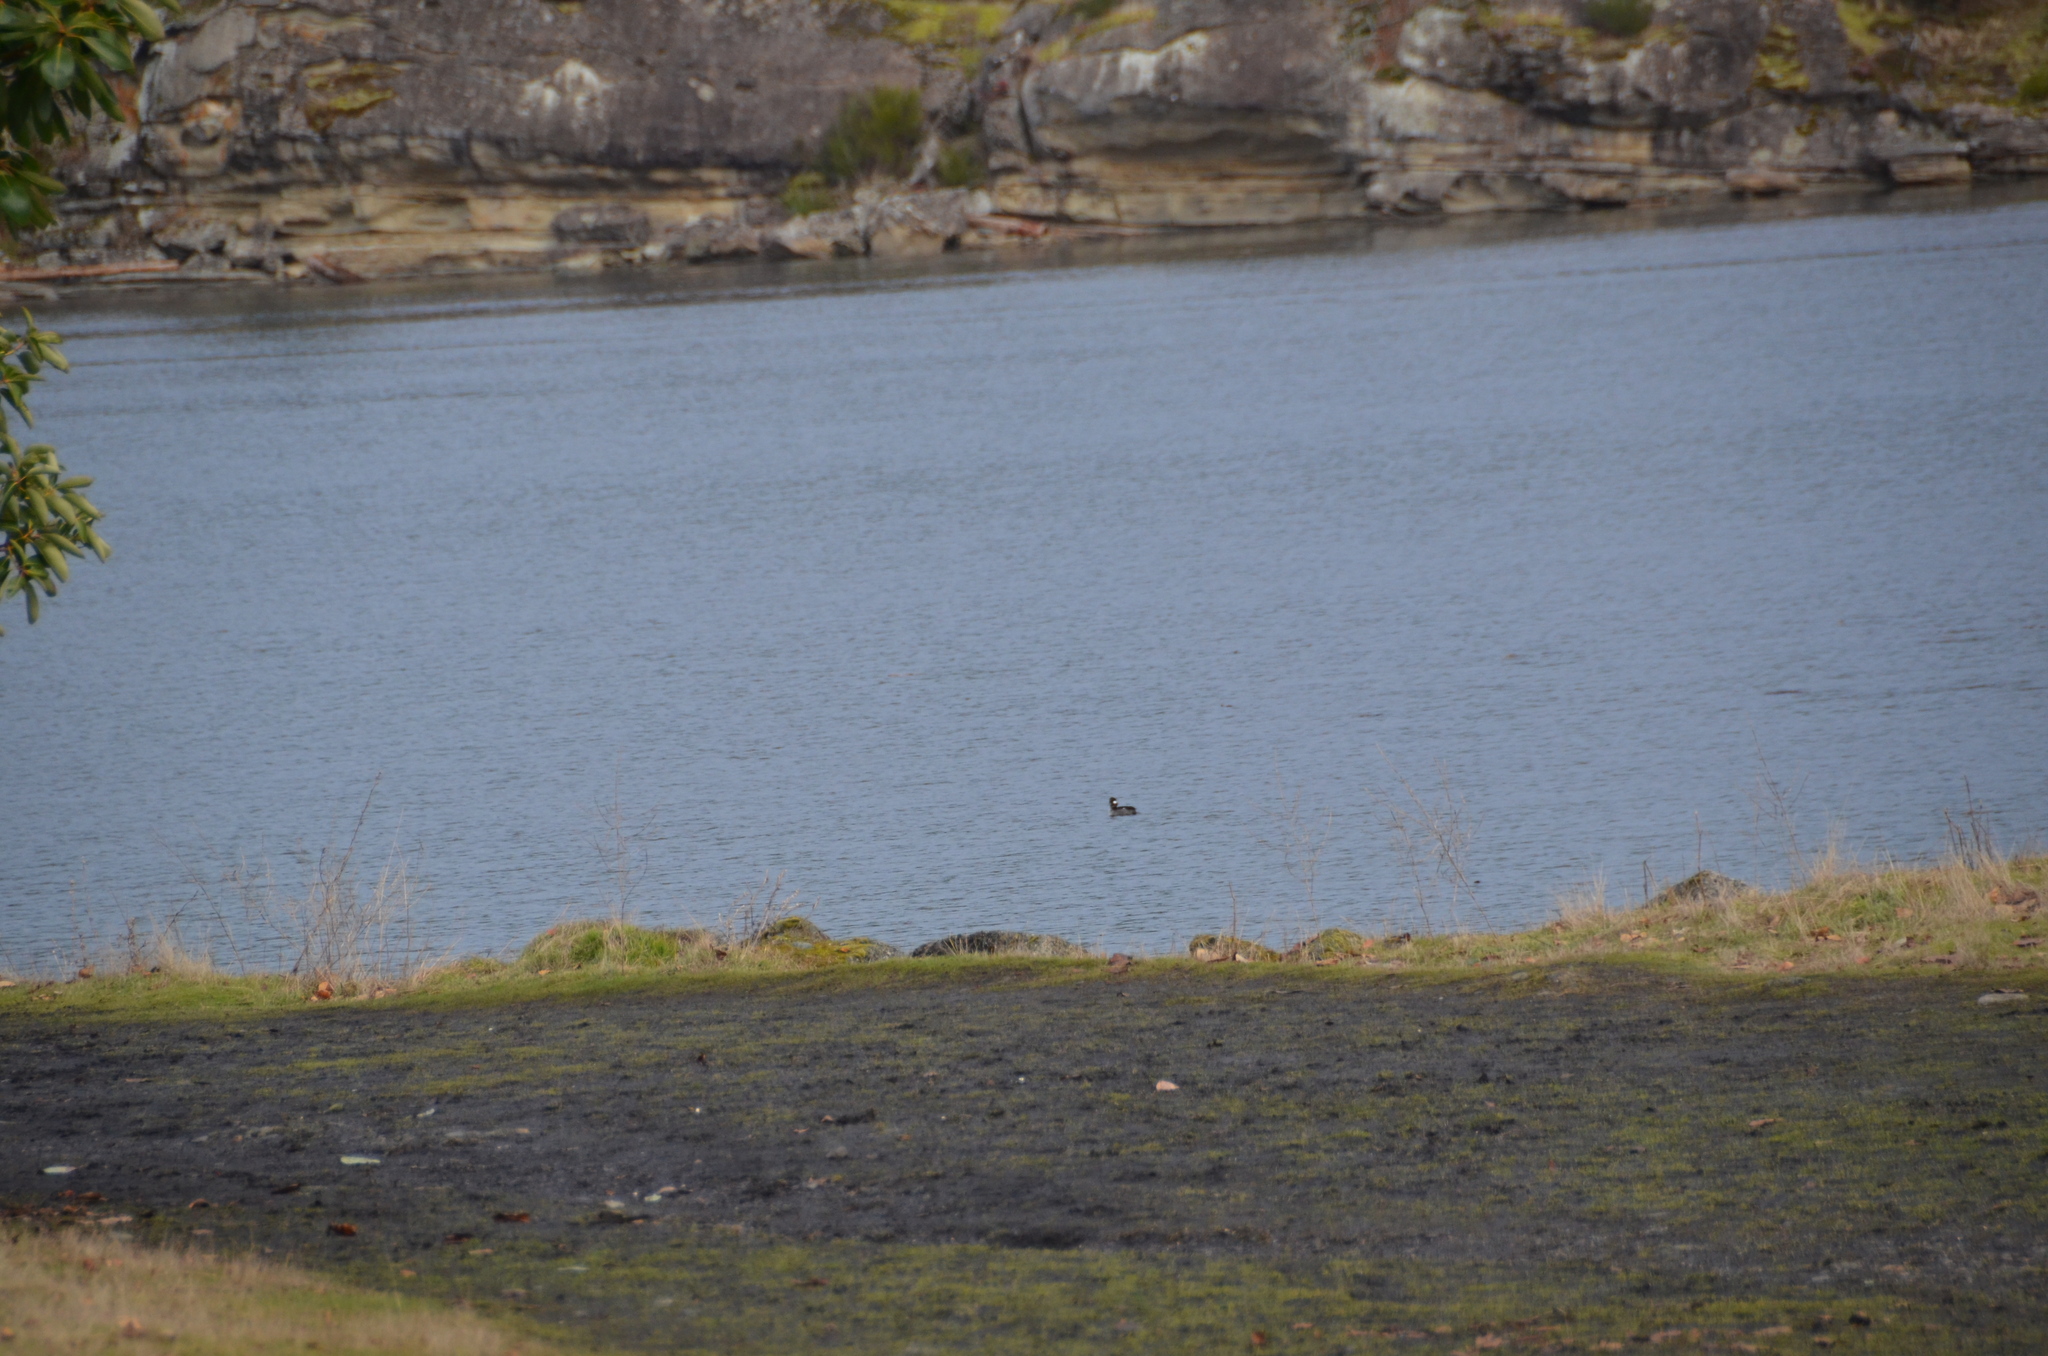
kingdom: Animalia
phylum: Chordata
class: Aves
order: Anseriformes
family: Anatidae
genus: Bucephala
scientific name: Bucephala albeola
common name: Bufflehead
